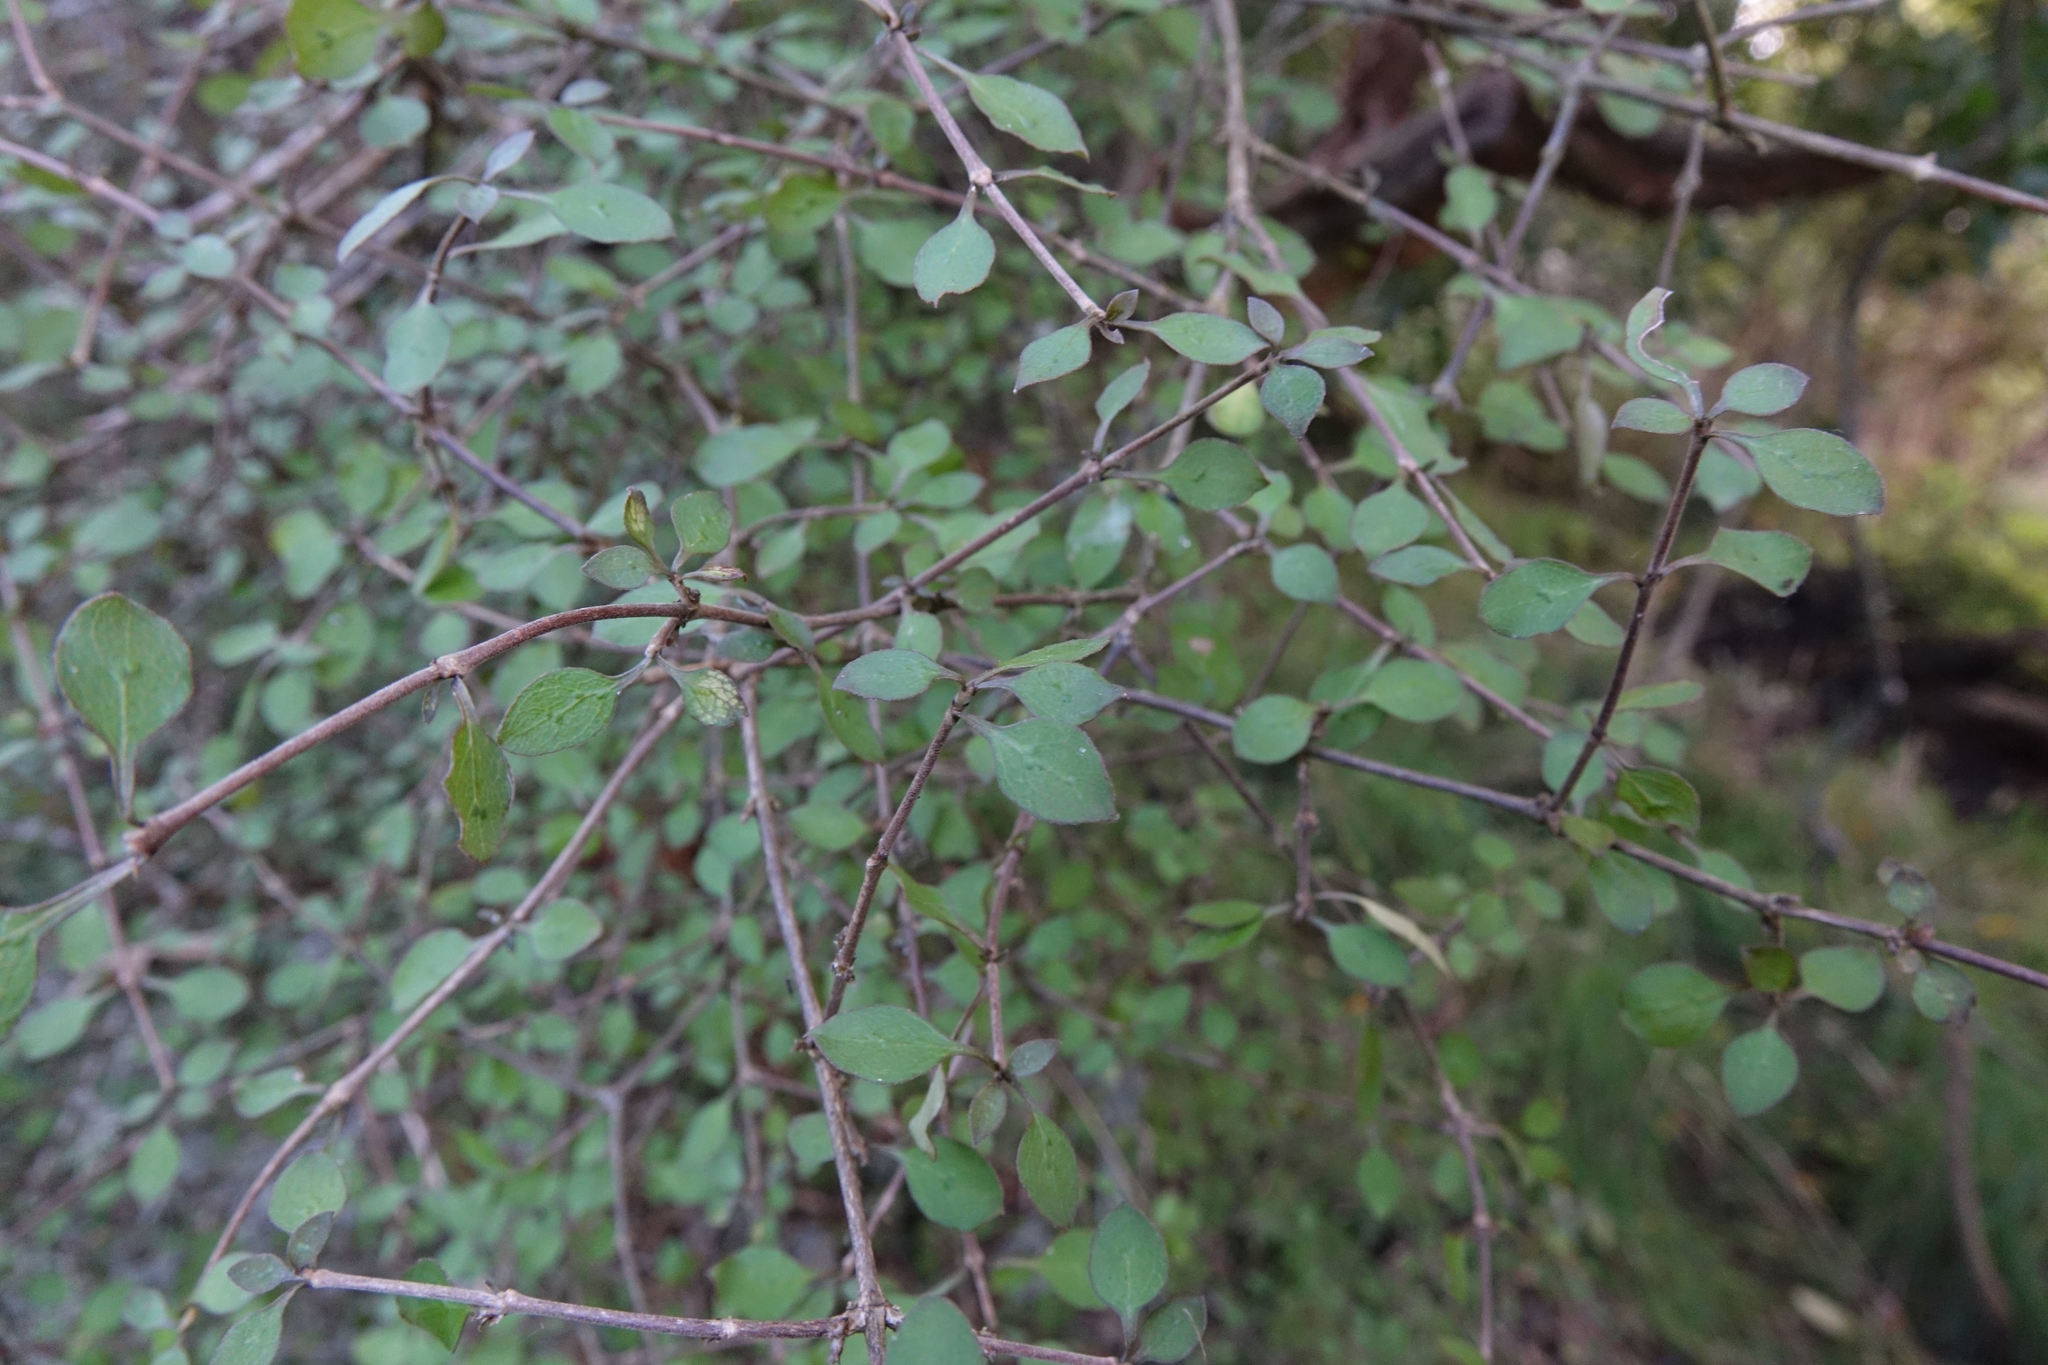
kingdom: Plantae
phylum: Tracheophyta
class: Magnoliopsida
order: Gentianales
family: Rubiaceae
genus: Coprosma
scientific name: Coprosma rubra
